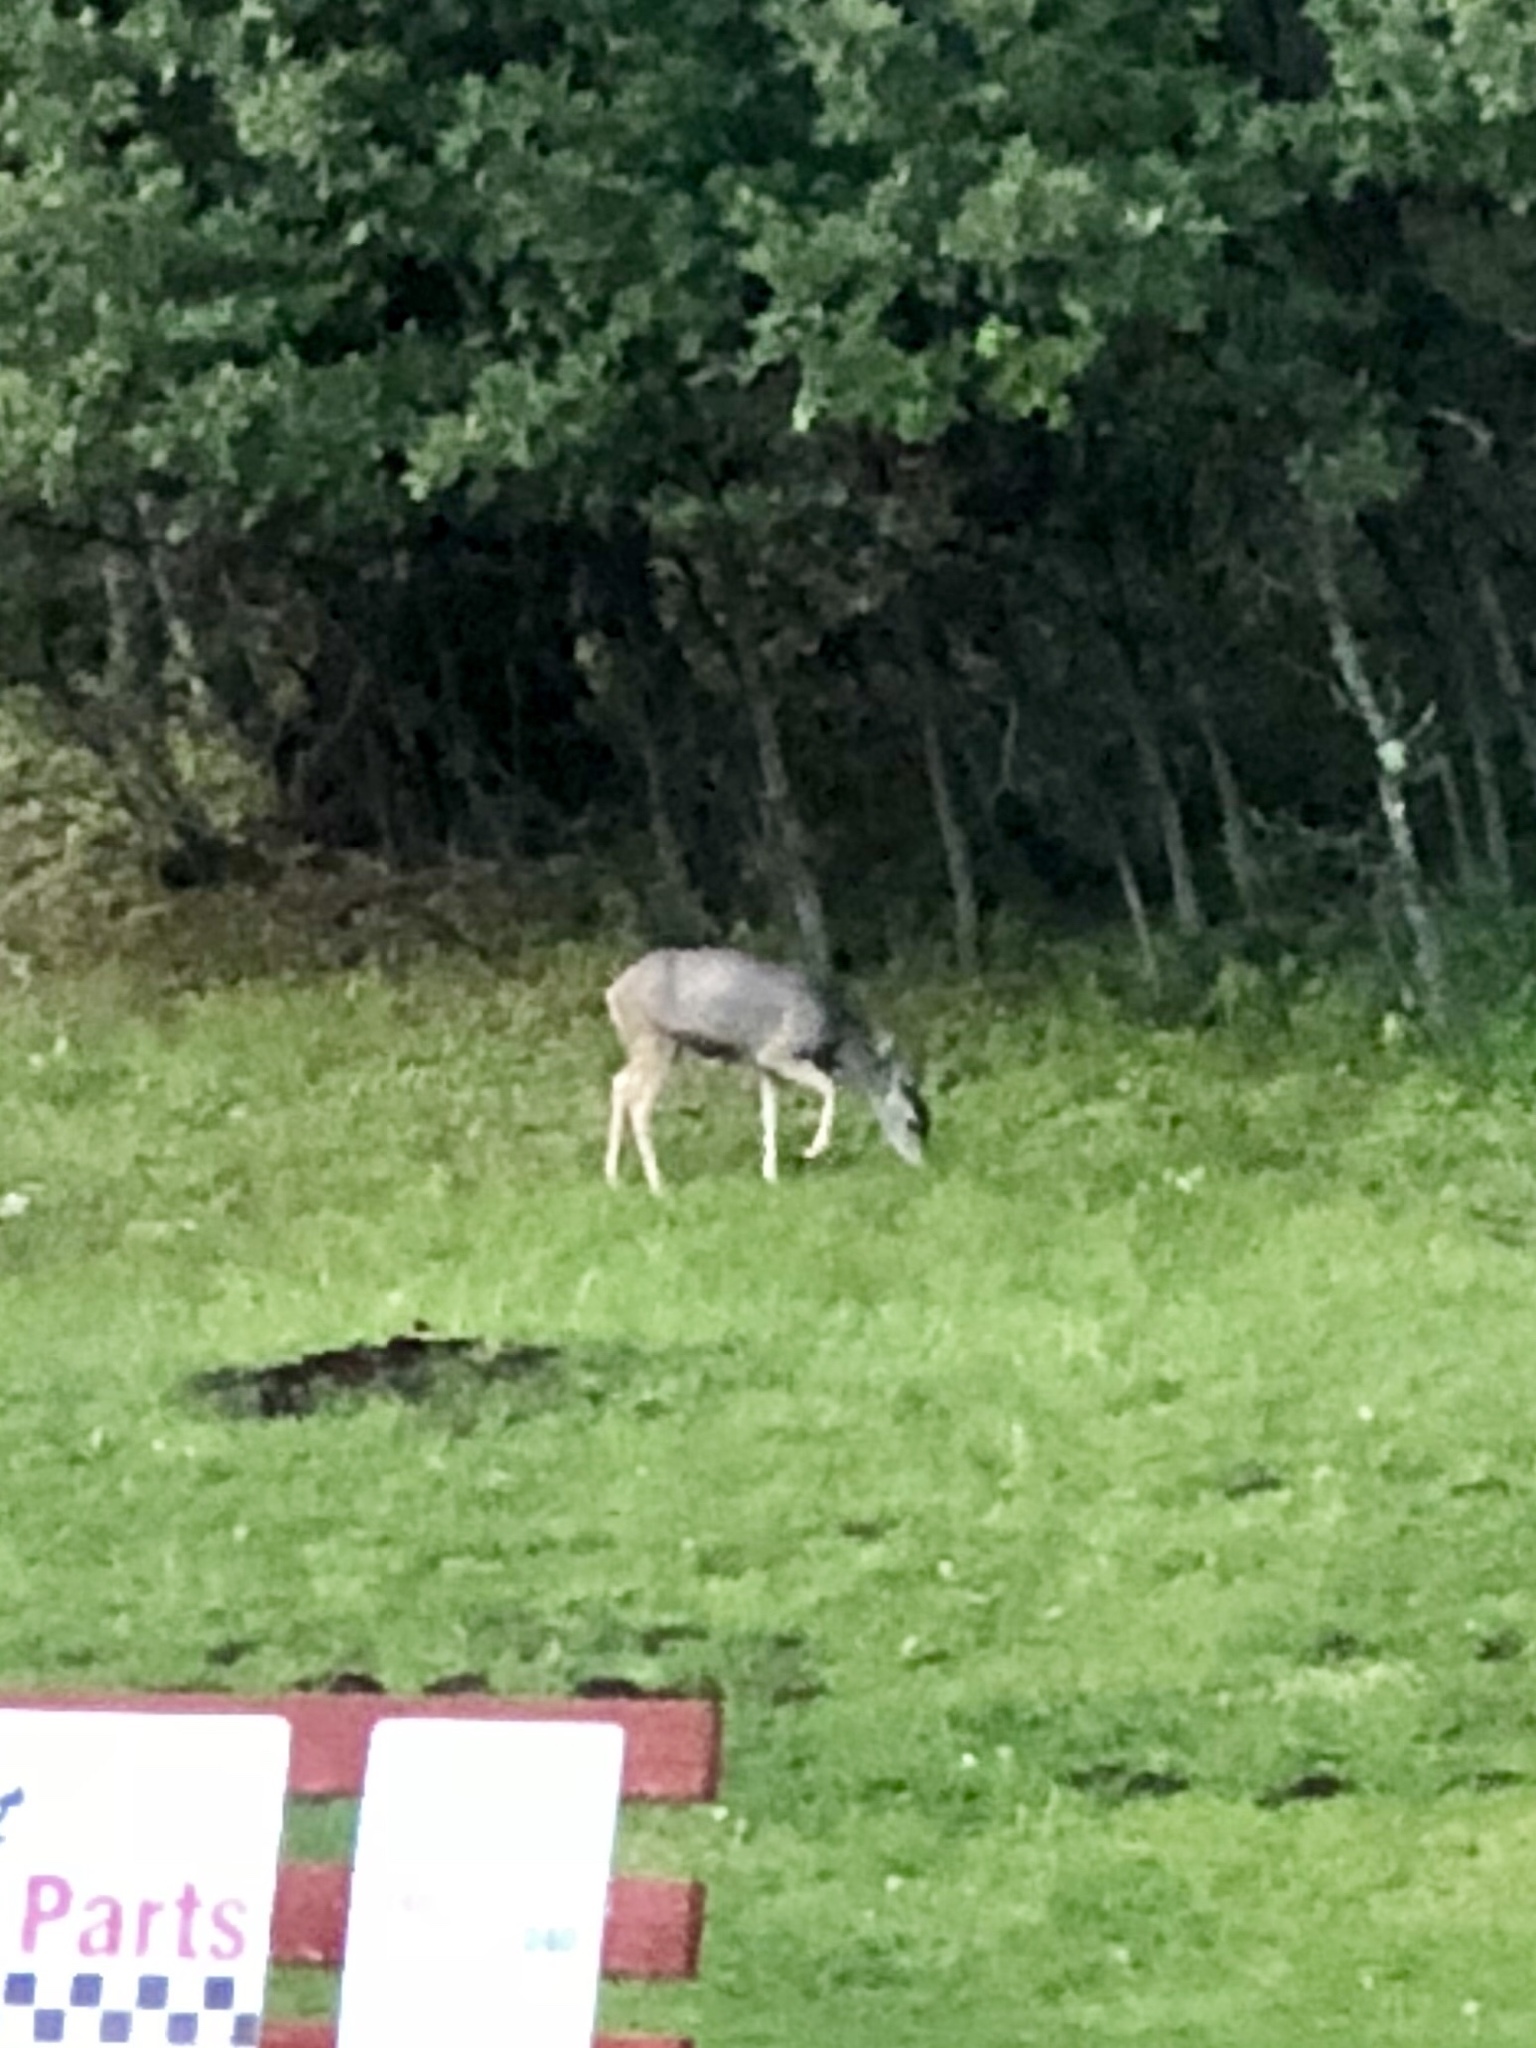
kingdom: Animalia
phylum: Chordata
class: Mammalia
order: Artiodactyla
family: Cervidae
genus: Odocoileus
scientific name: Odocoileus hemionus
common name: Mule deer
